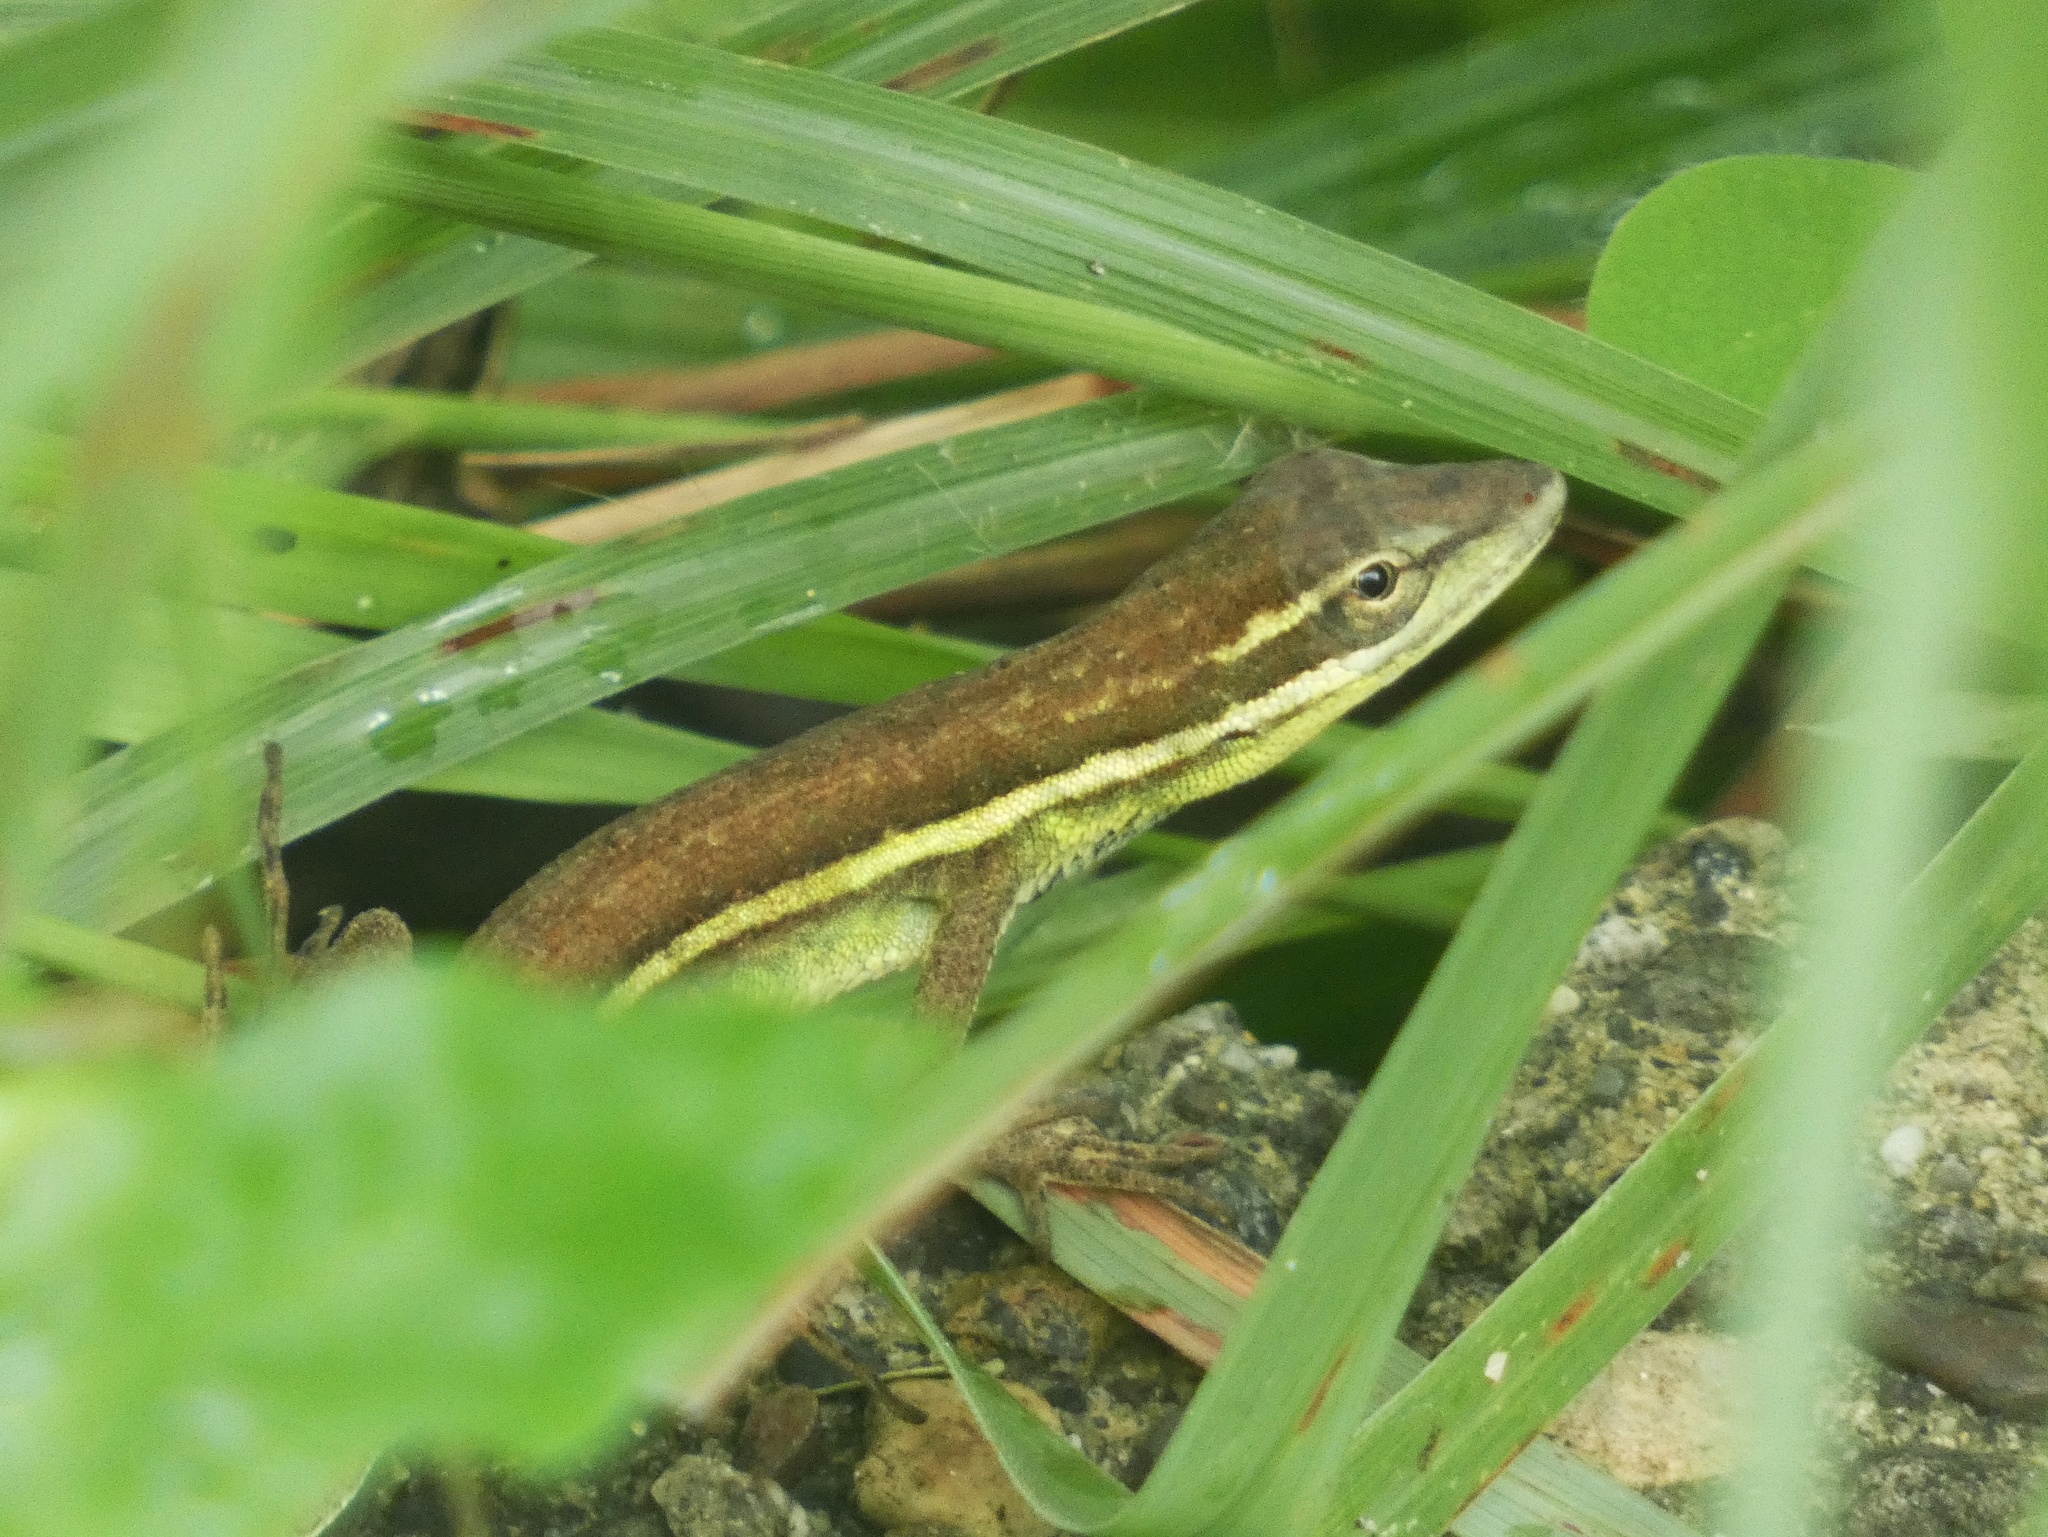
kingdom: Animalia
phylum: Chordata
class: Squamata
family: Dactyloidae
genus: Anolis
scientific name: Anolis auratus
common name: Grass anole
